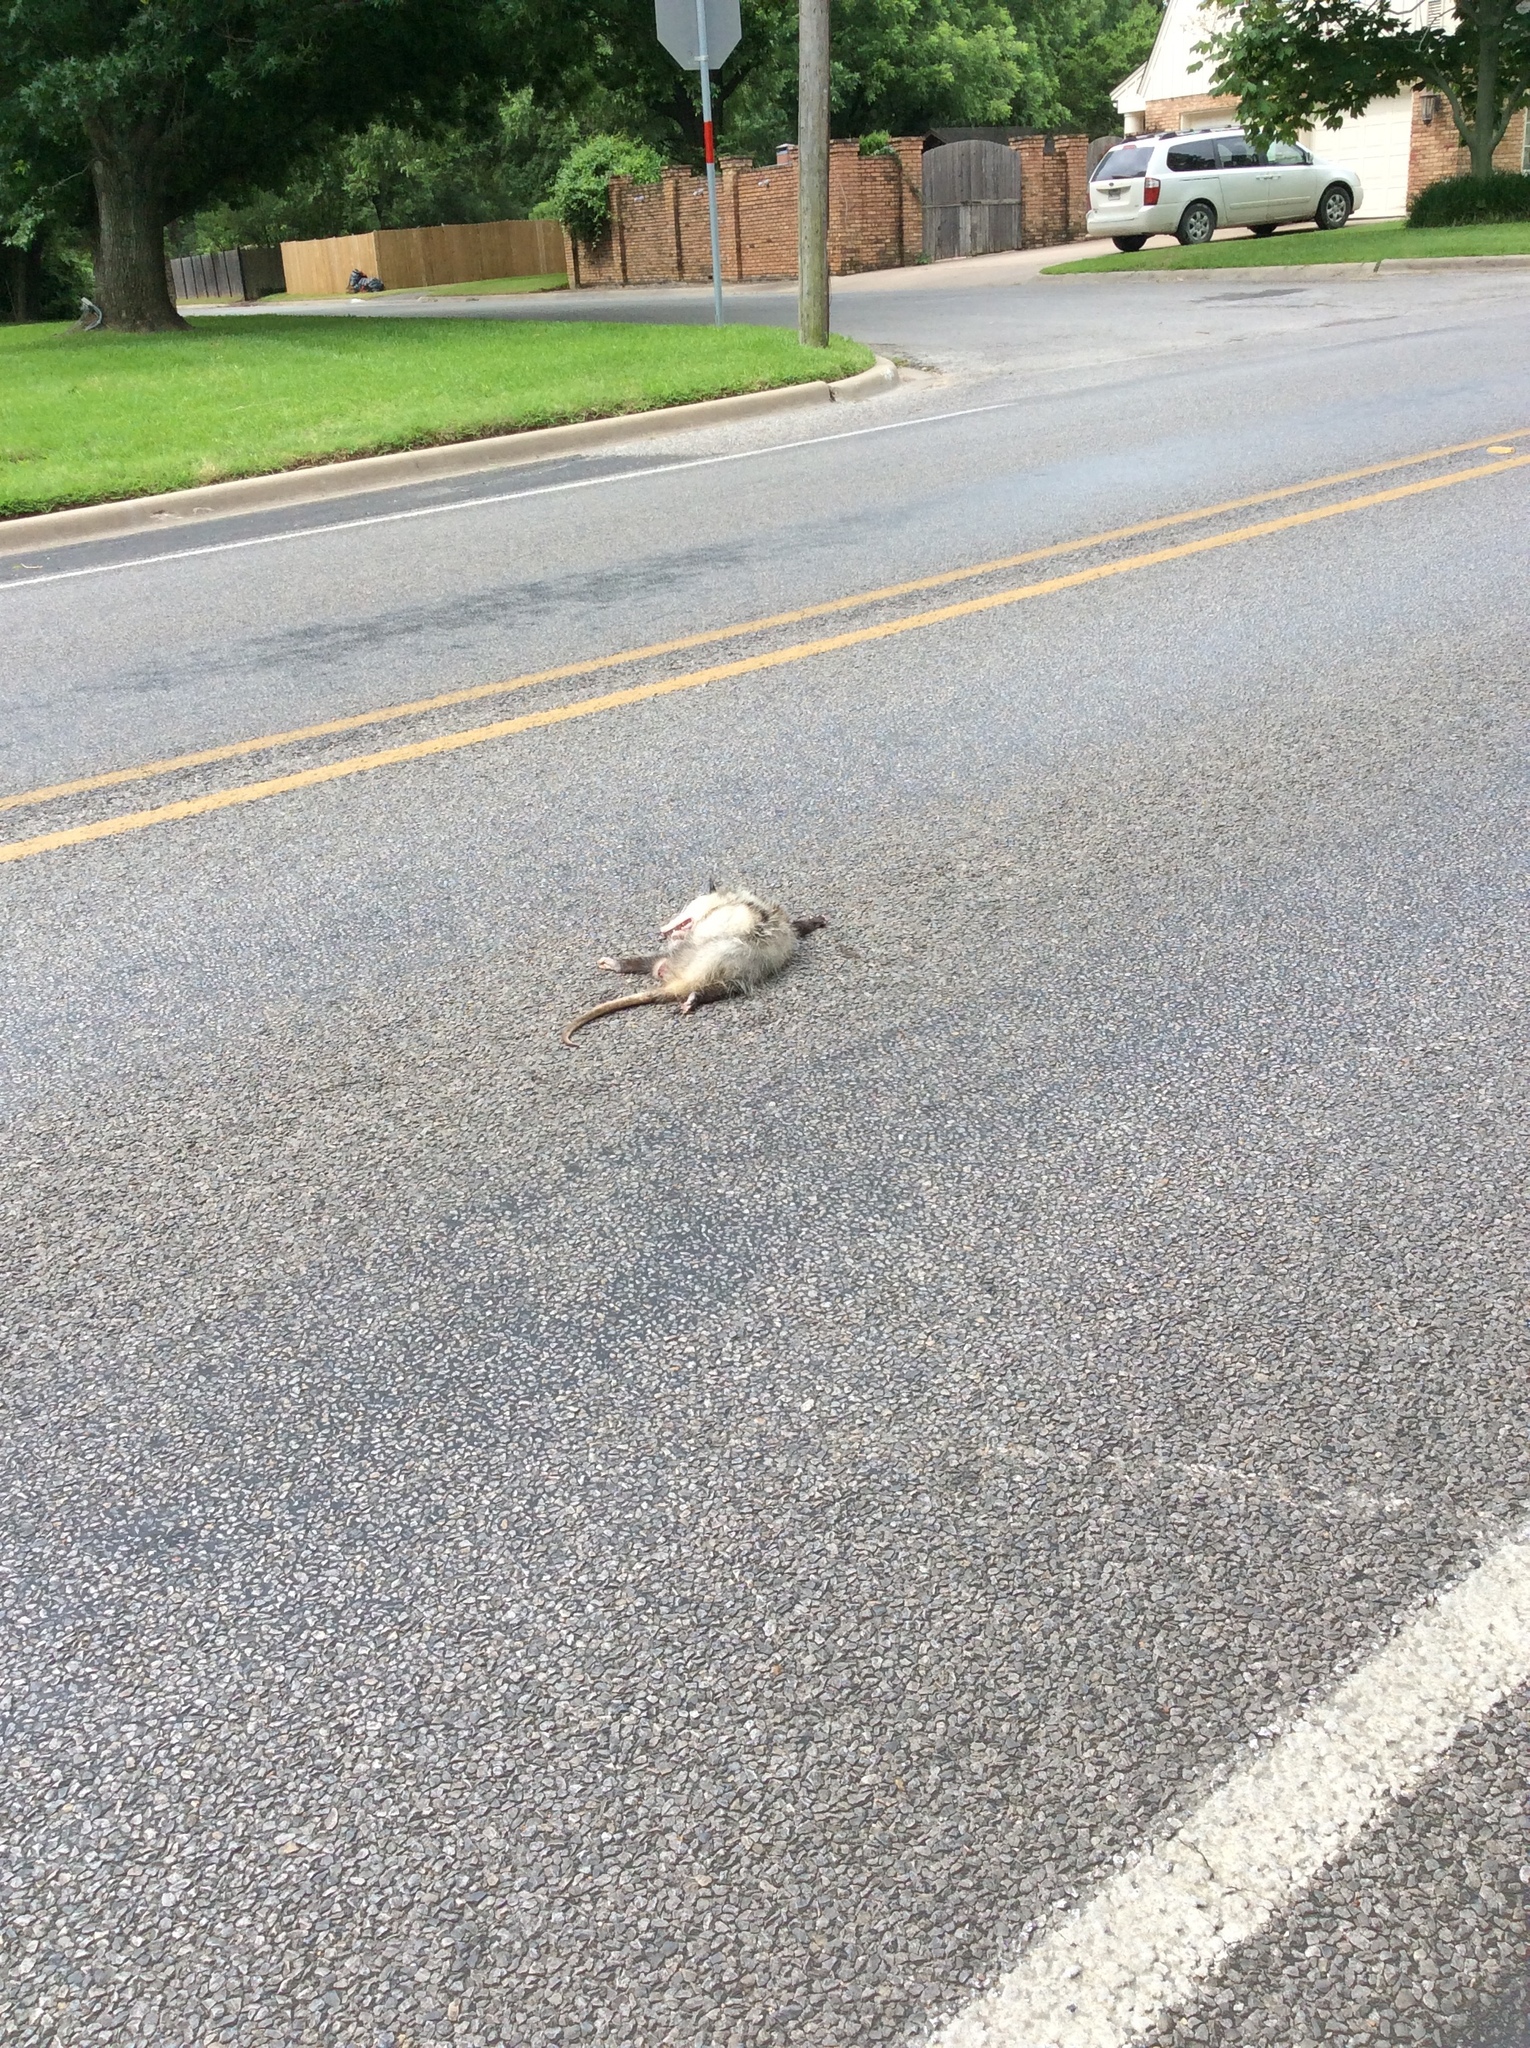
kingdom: Animalia
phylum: Chordata
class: Mammalia
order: Didelphimorphia
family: Didelphidae
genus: Didelphis
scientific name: Didelphis virginiana
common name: Virginia opossum
